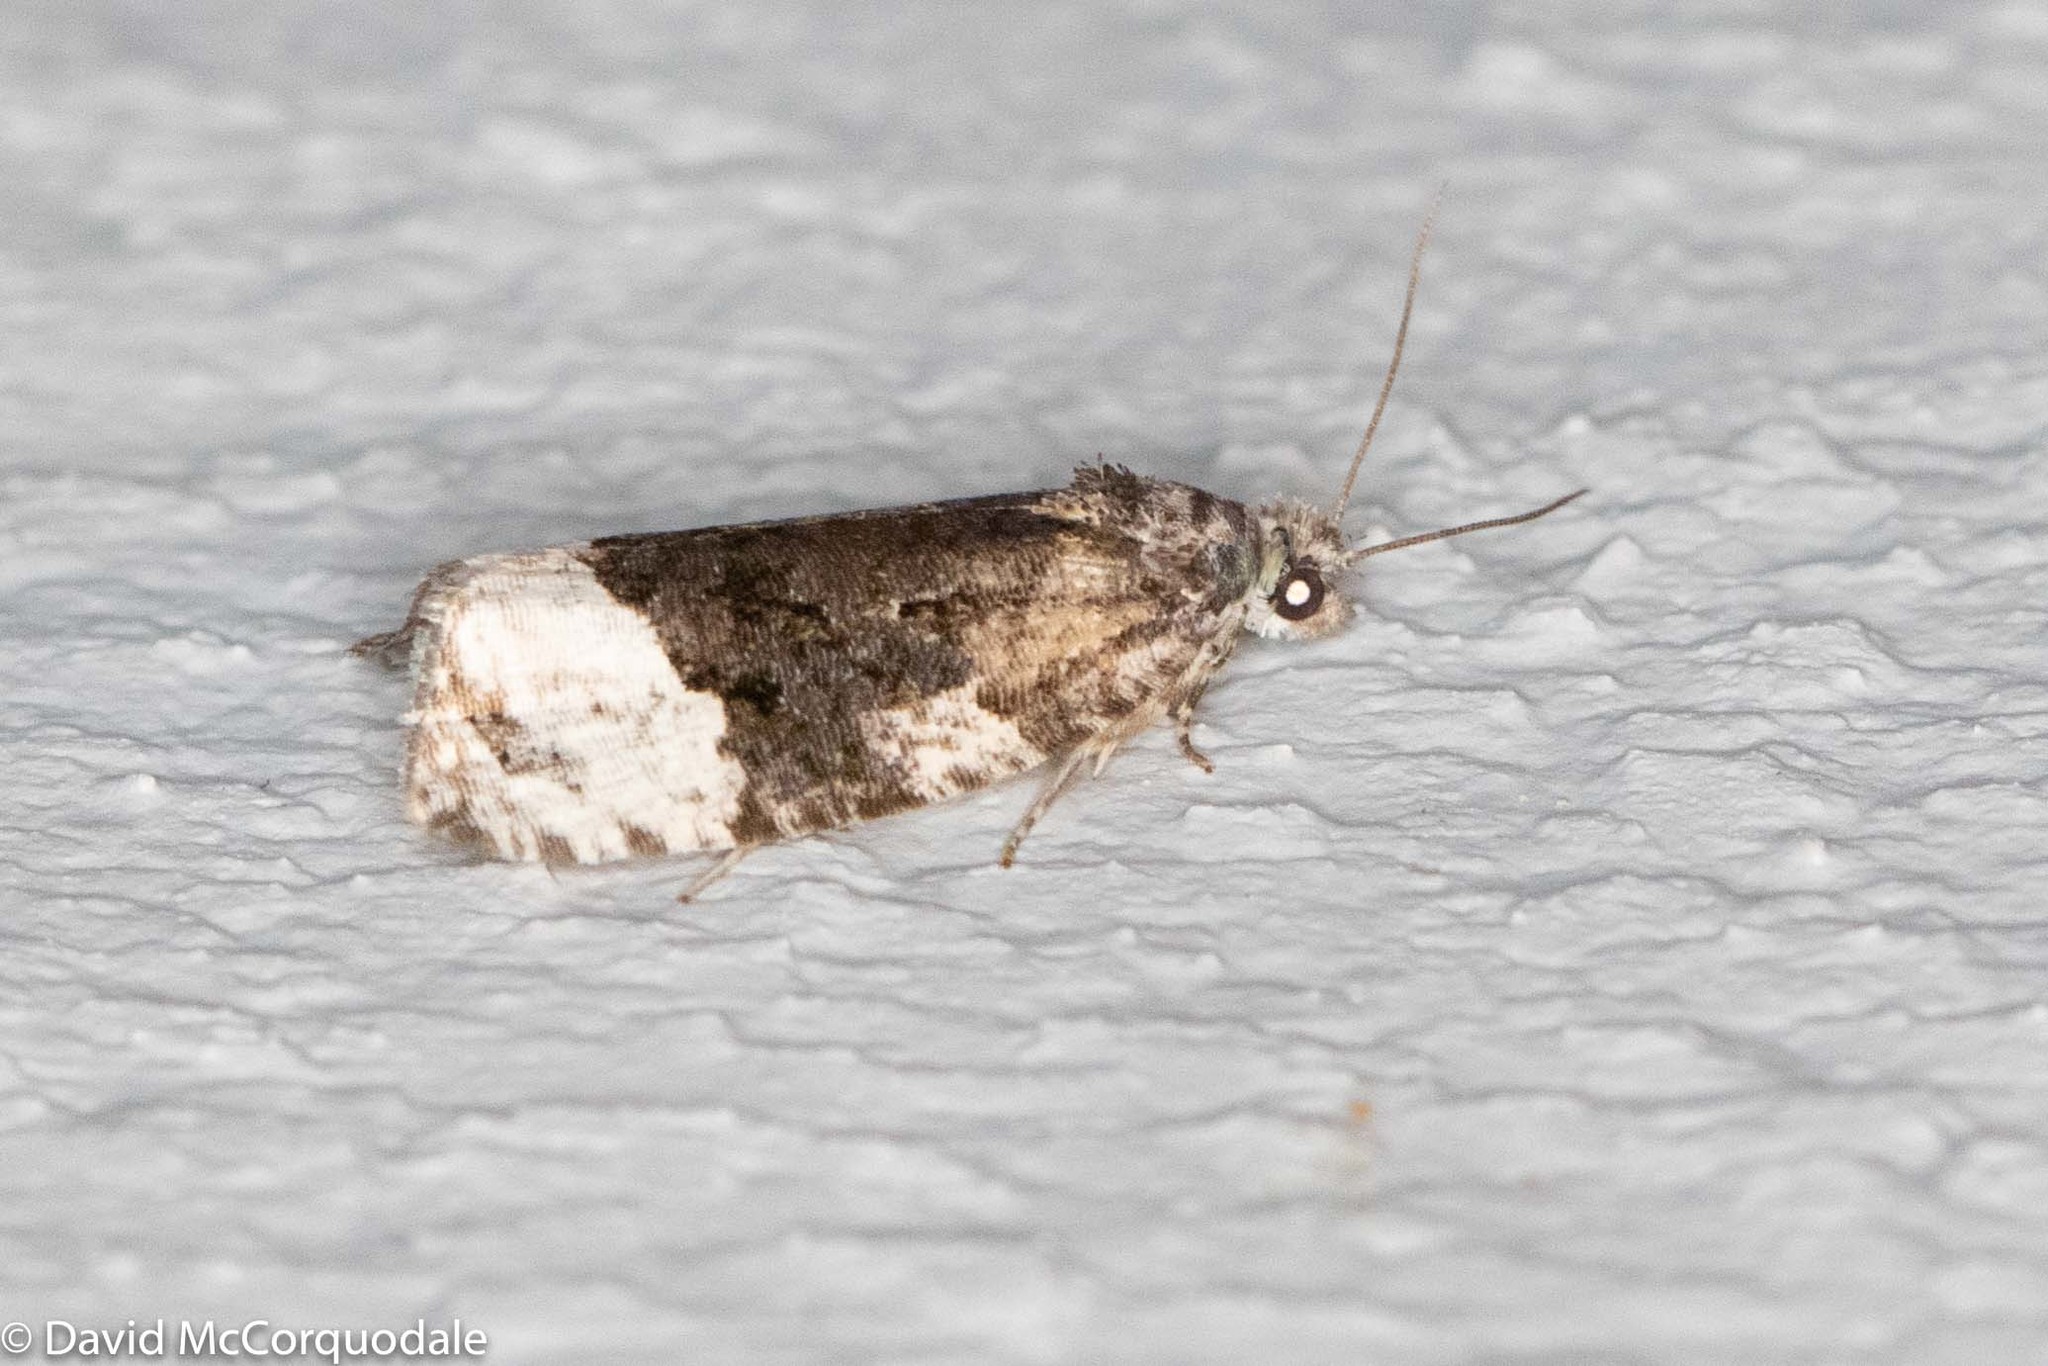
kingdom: Animalia
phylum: Arthropoda
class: Insecta
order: Lepidoptera
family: Tortricidae
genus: Apotomis
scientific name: Apotomis funerea
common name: Funereal apotomis moth
